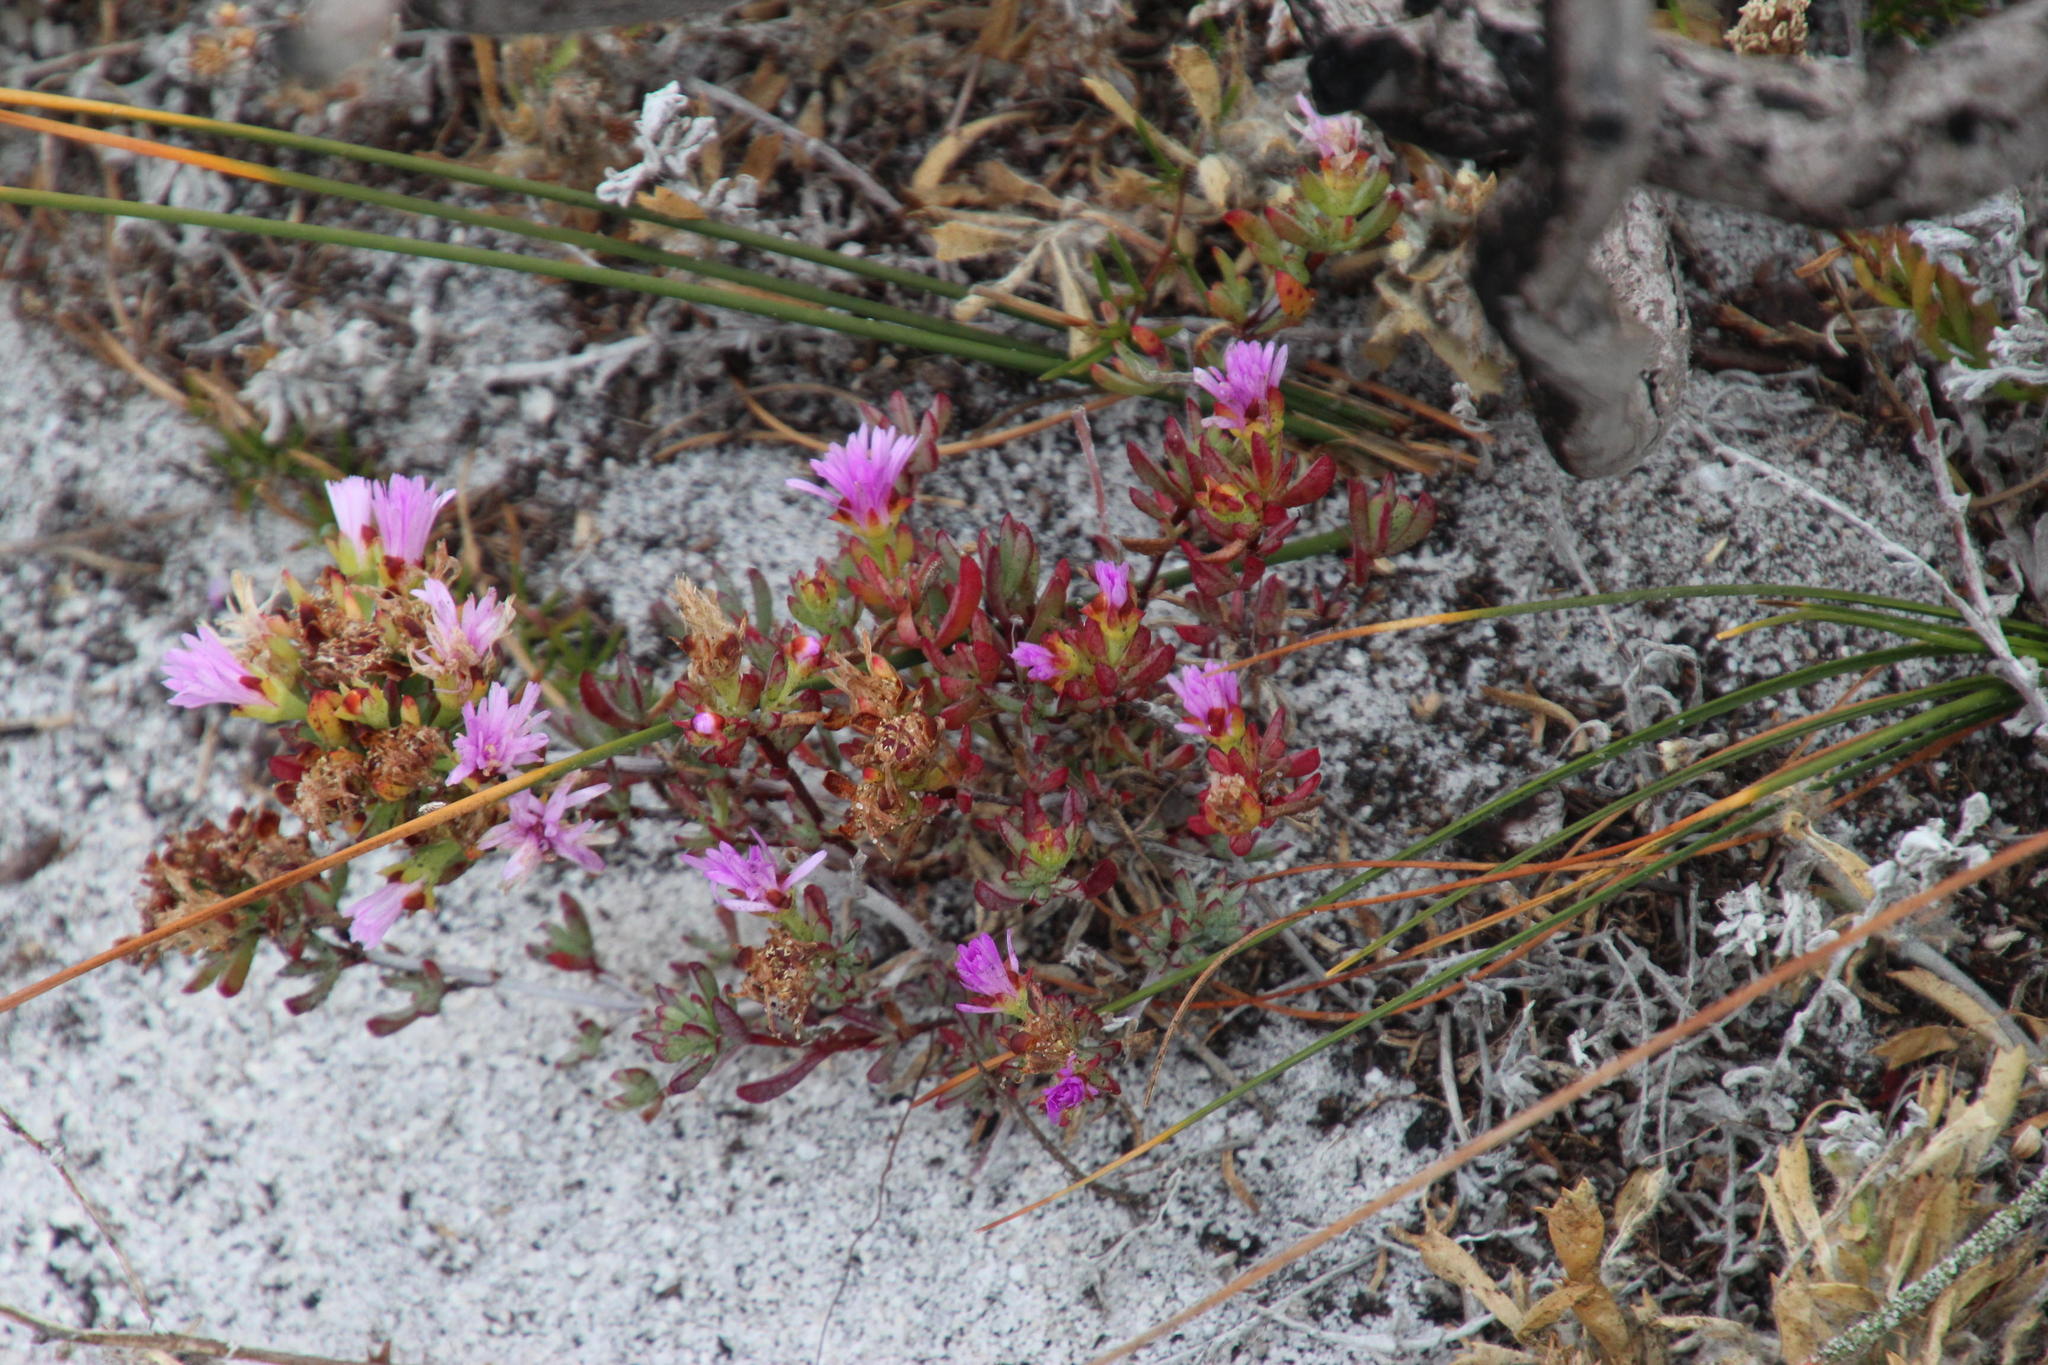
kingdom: Plantae
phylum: Tracheophyta
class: Magnoliopsida
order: Caryophyllales
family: Aizoaceae
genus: Lampranthus
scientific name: Lampranthus tenuifolius
